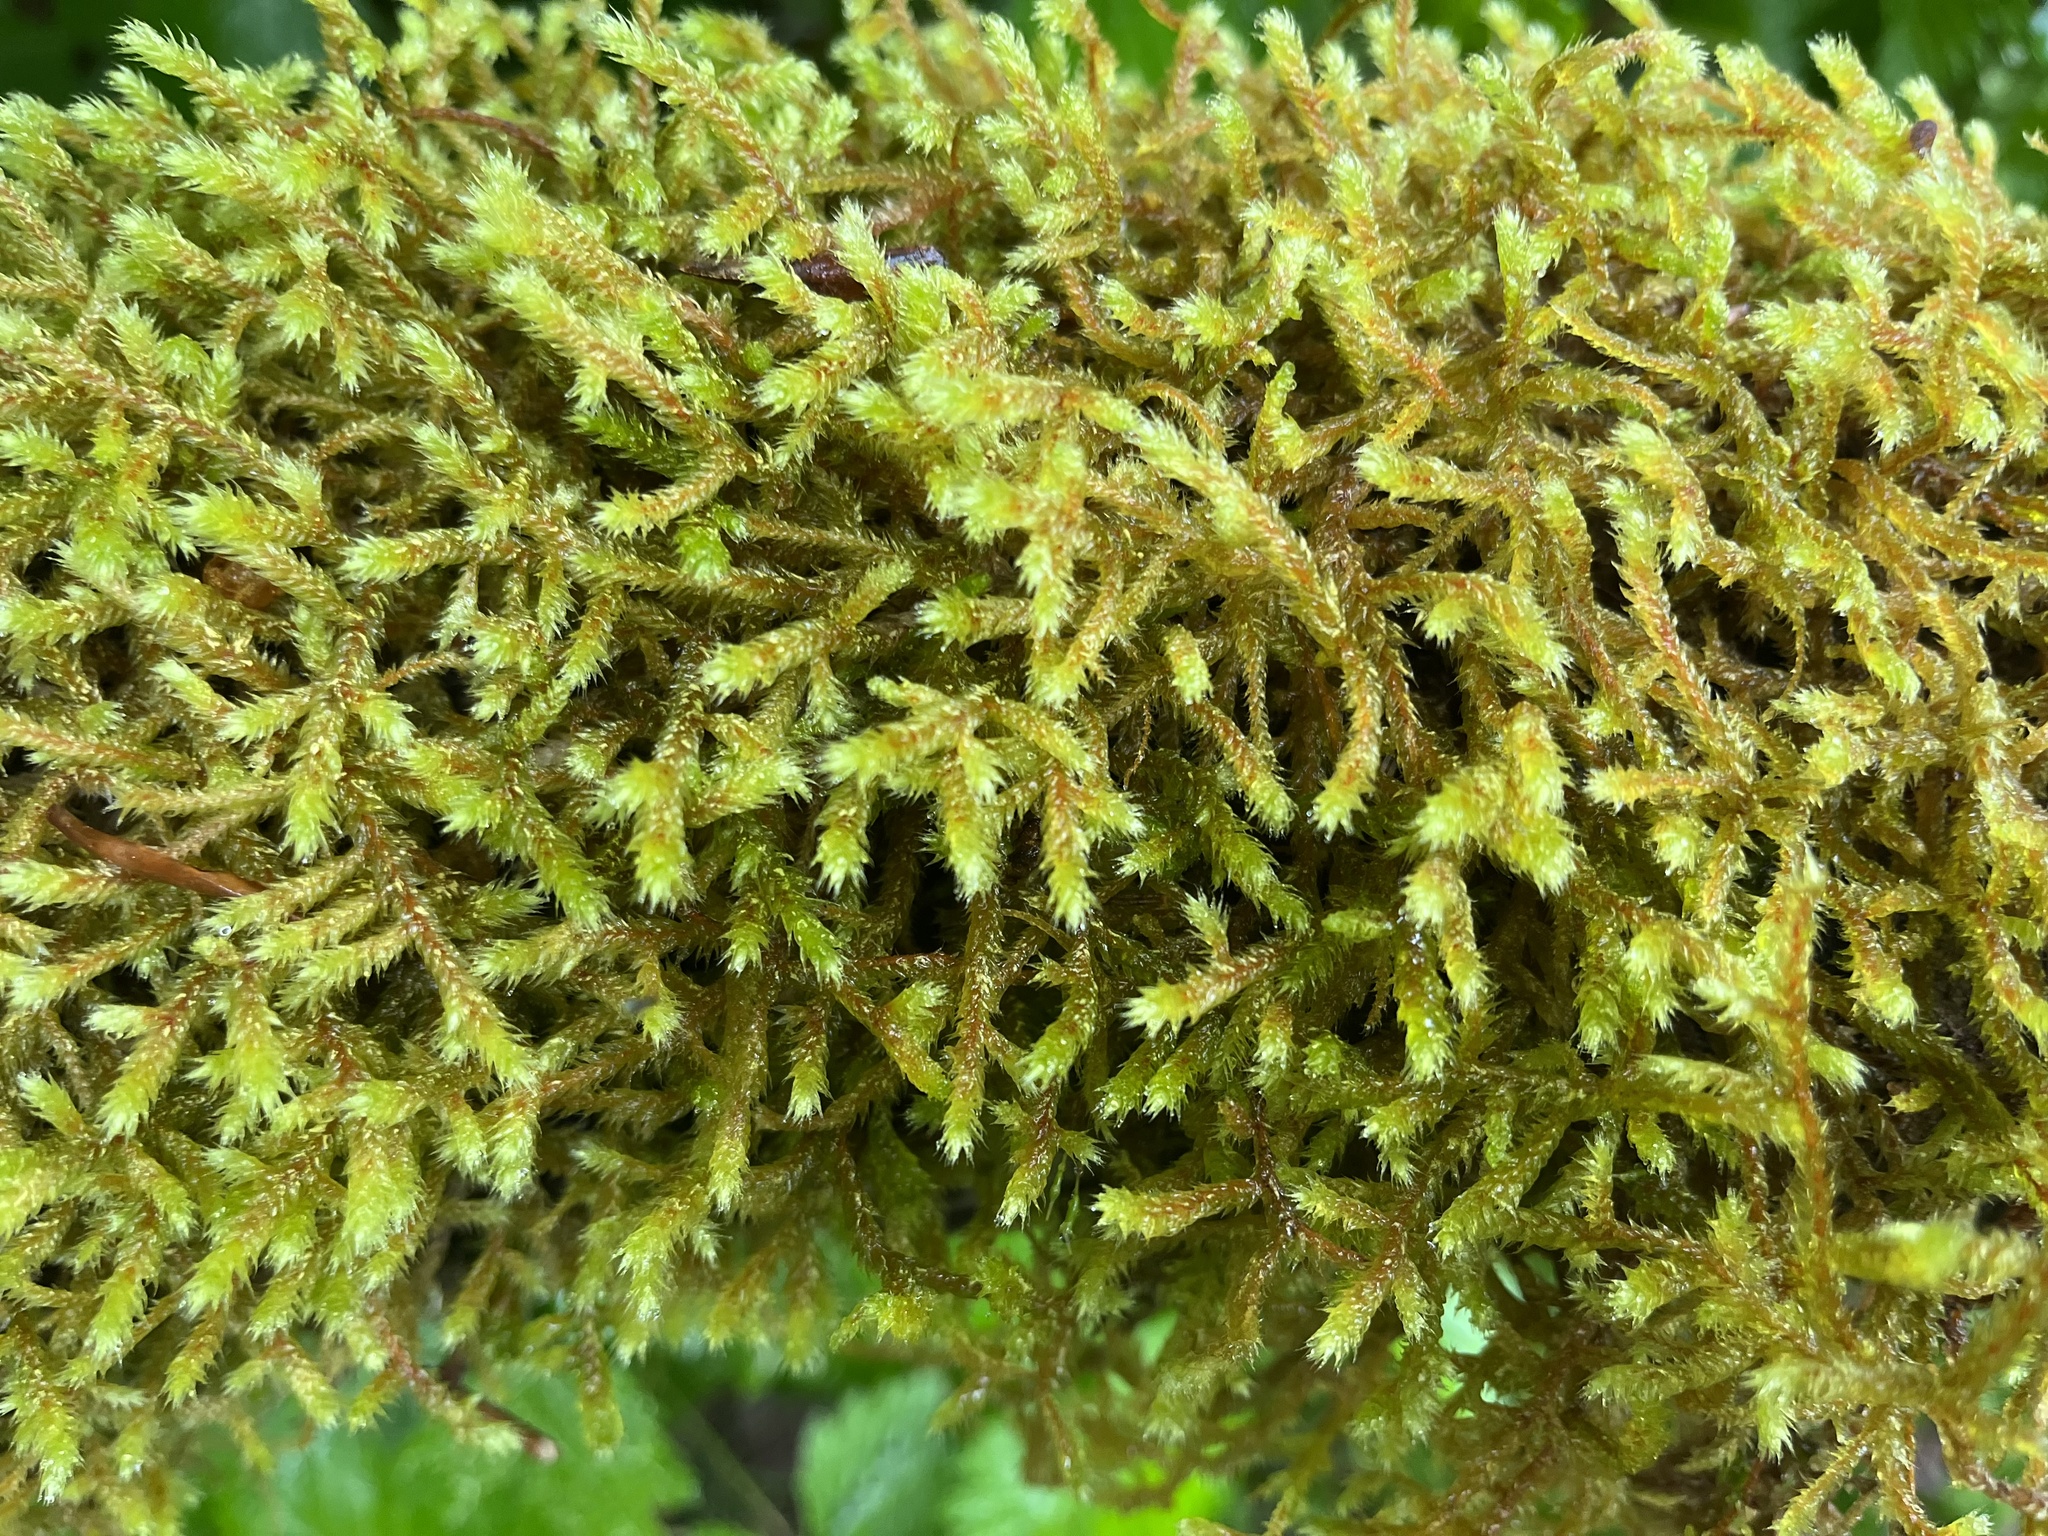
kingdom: Plantae
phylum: Bryophyta
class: Bryopsida
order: Hypnales
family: Antitrichiaceae
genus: Antitrichia
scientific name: Antitrichia curtipendula
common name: Pendulous wing-moss
